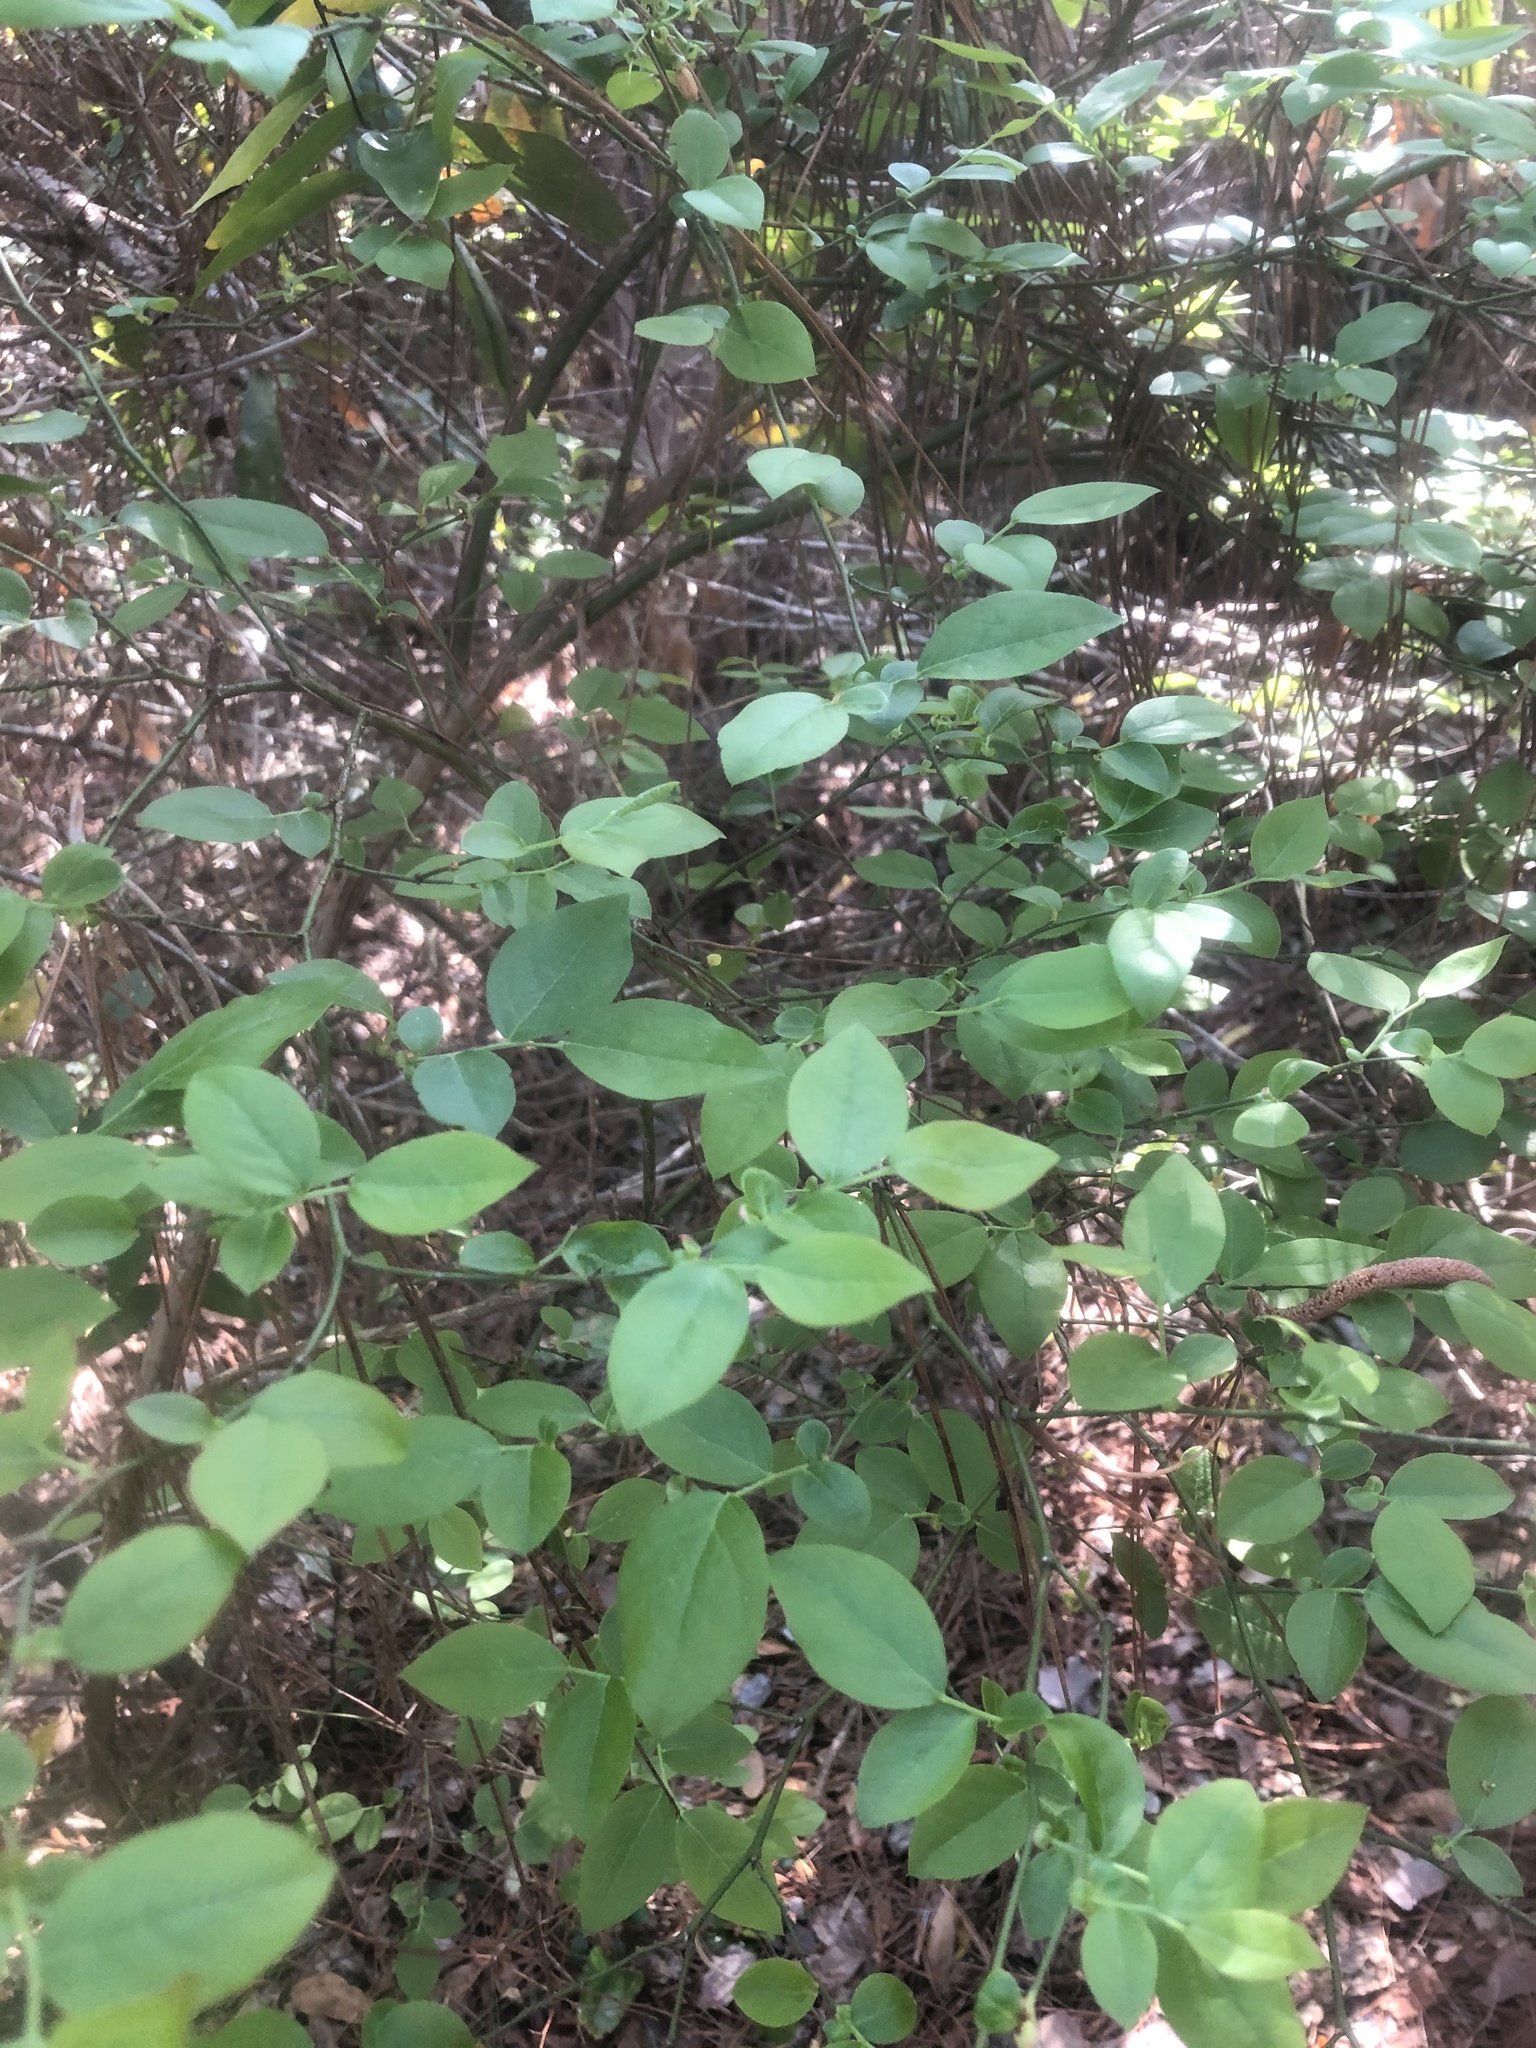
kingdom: Plantae
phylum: Tracheophyta
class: Magnoliopsida
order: Ericales
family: Ericaceae
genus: Vaccinium
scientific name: Vaccinium corymbosum
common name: Blueberry
